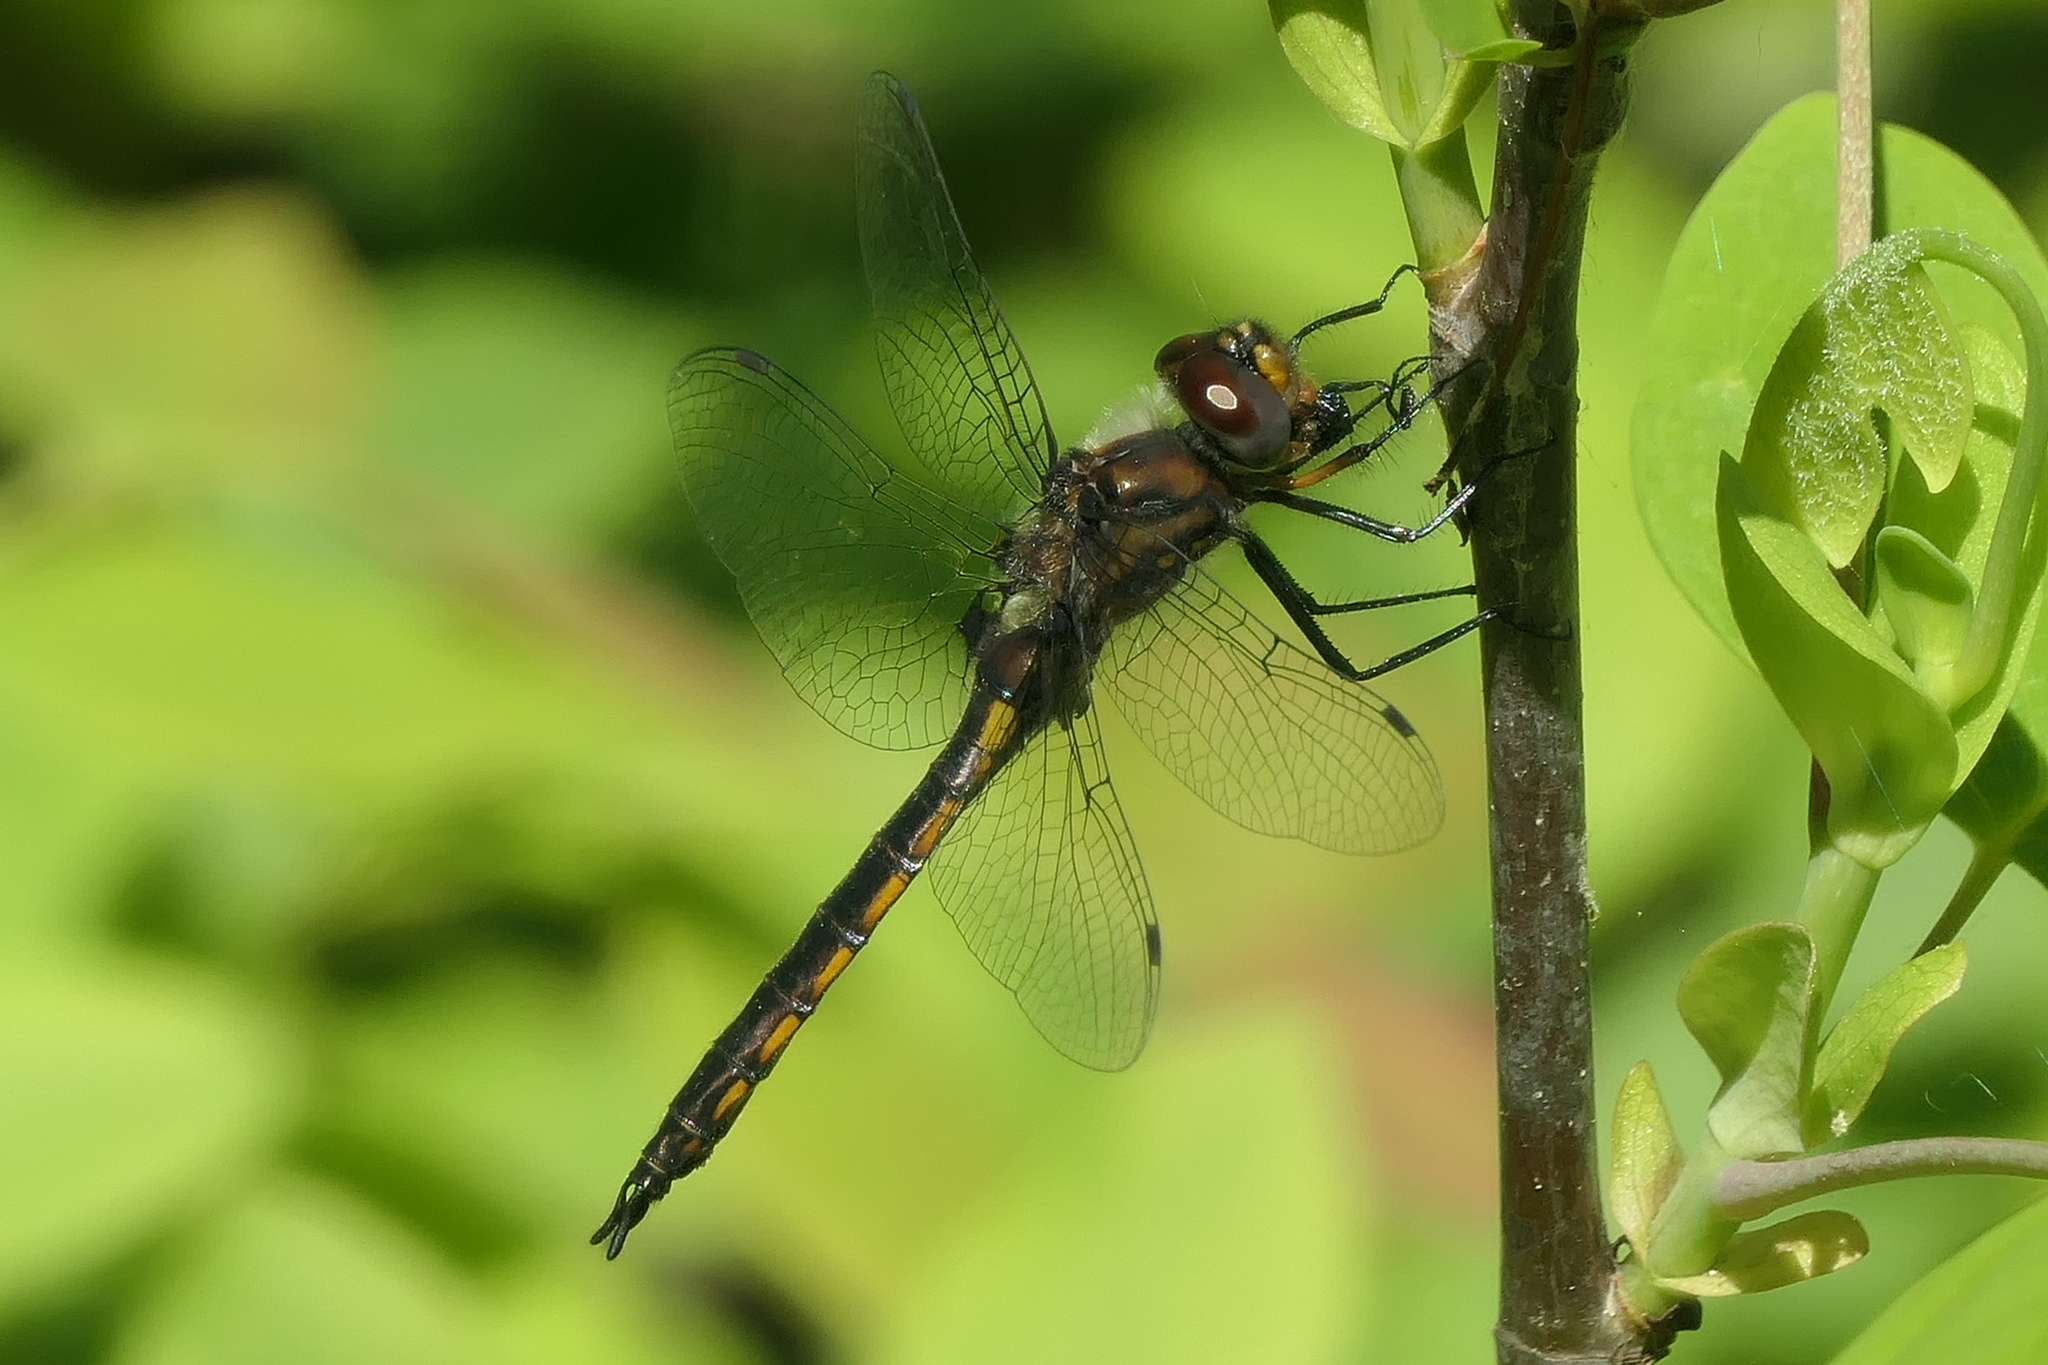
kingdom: Animalia
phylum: Arthropoda
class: Insecta
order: Odonata
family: Corduliidae
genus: Epitheca
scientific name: Epitheca cynosura
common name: Common baskettail
